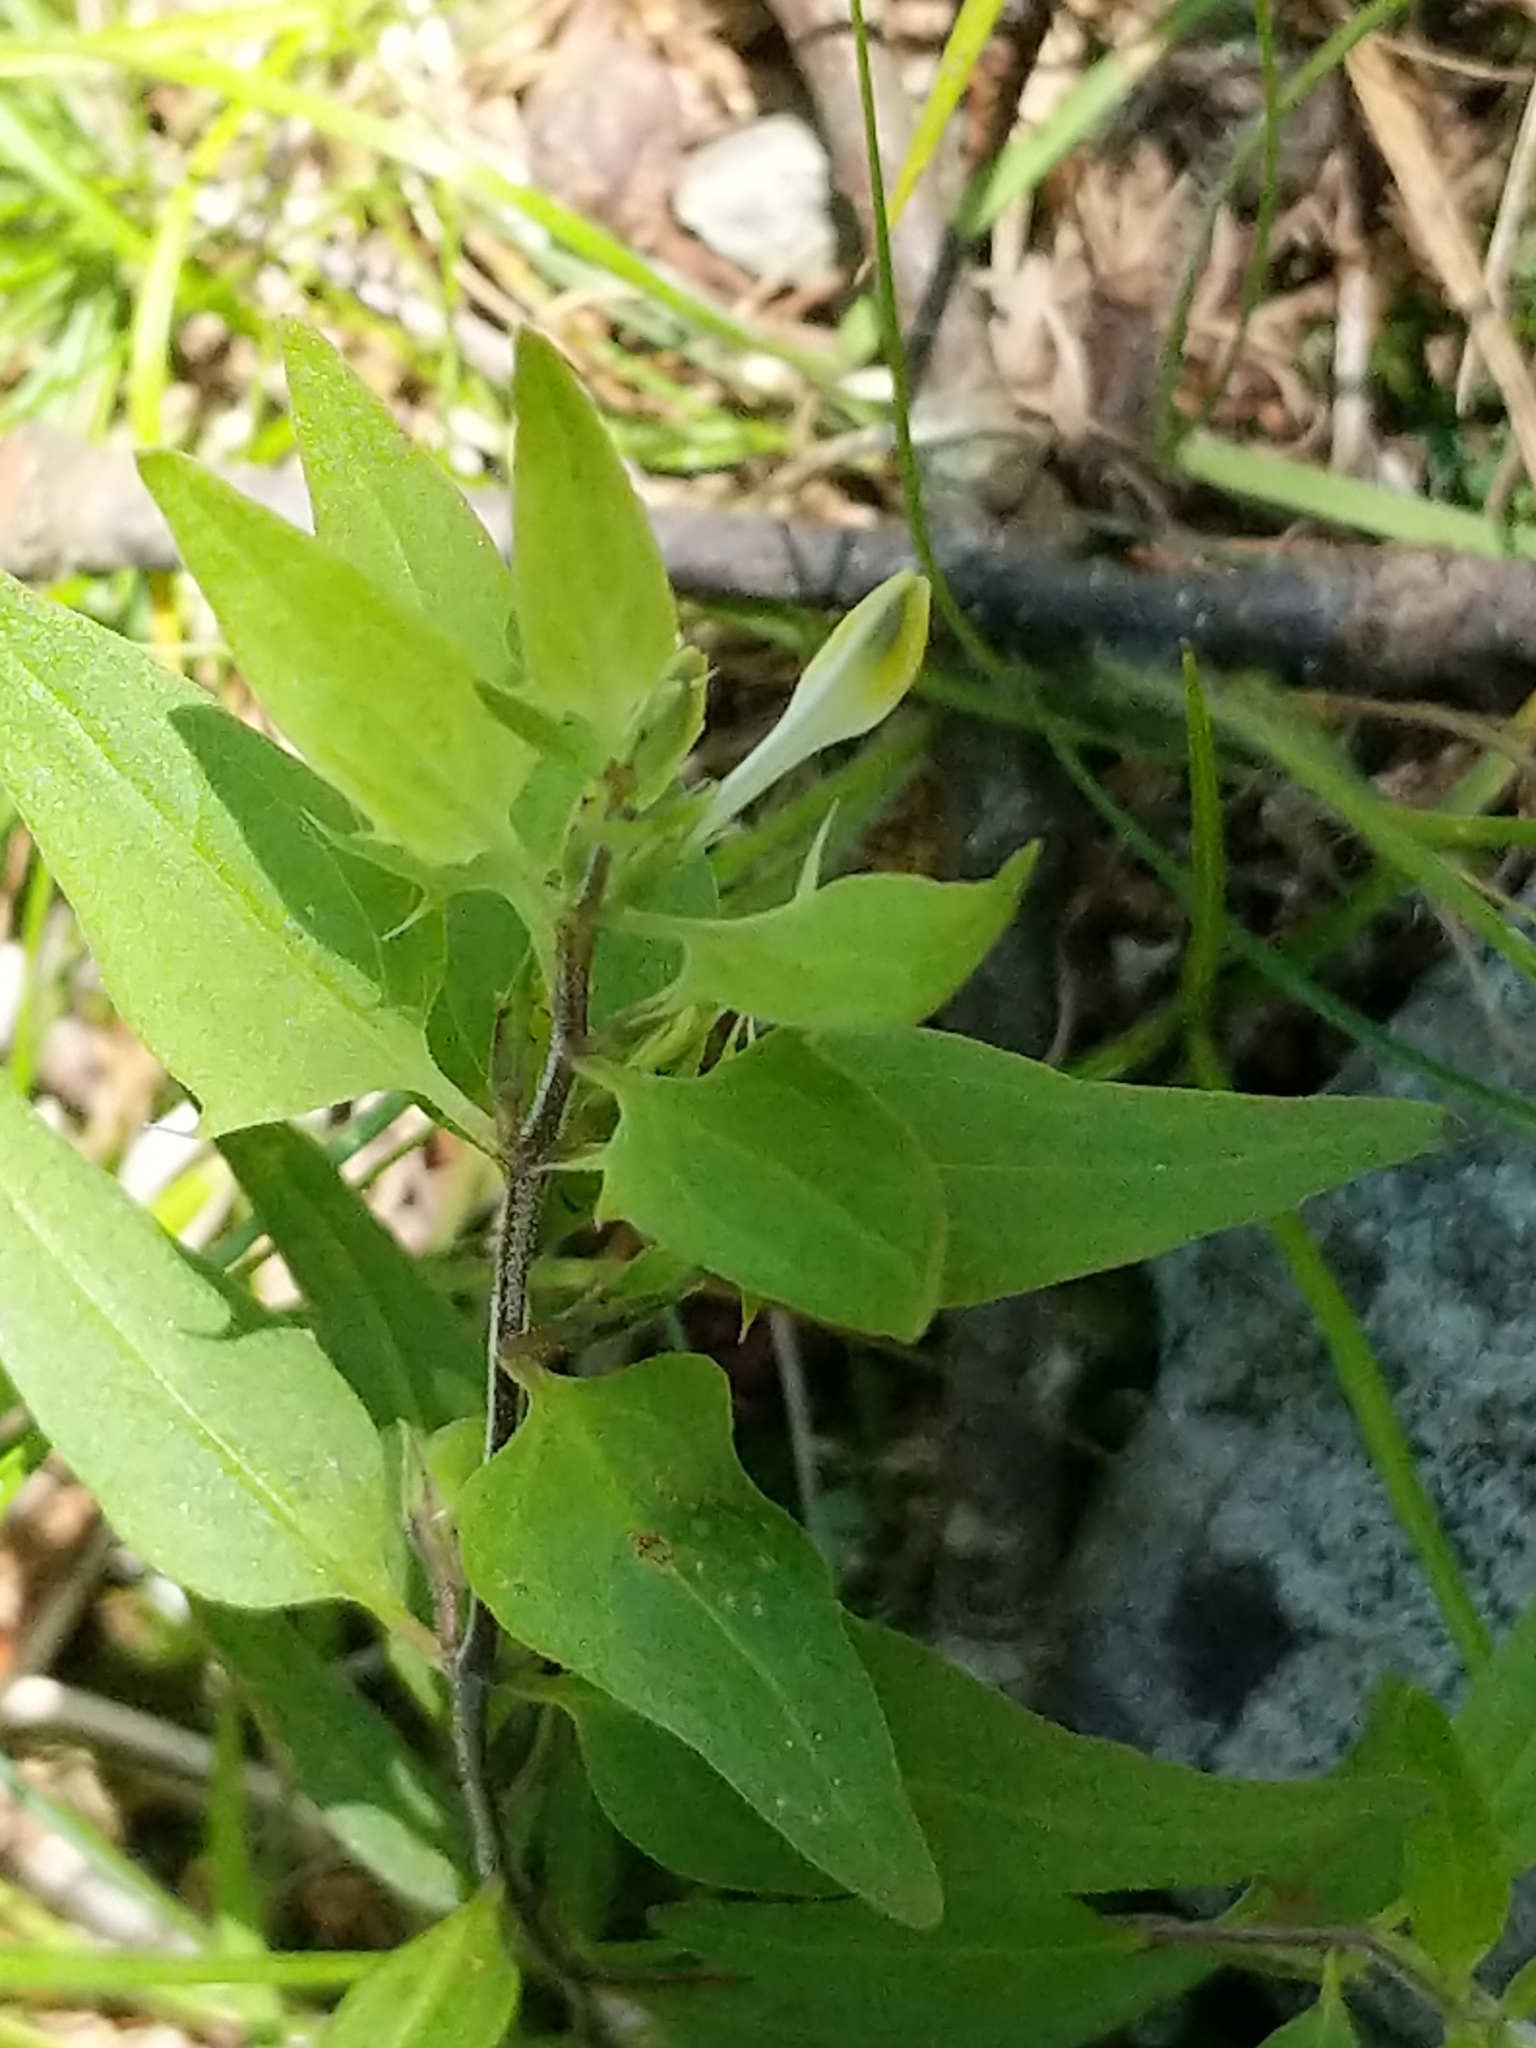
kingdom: Plantae
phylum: Tracheophyta
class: Magnoliopsida
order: Lamiales
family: Orobanchaceae
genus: Melampyrum
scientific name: Melampyrum lineare
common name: American cow-wheat
